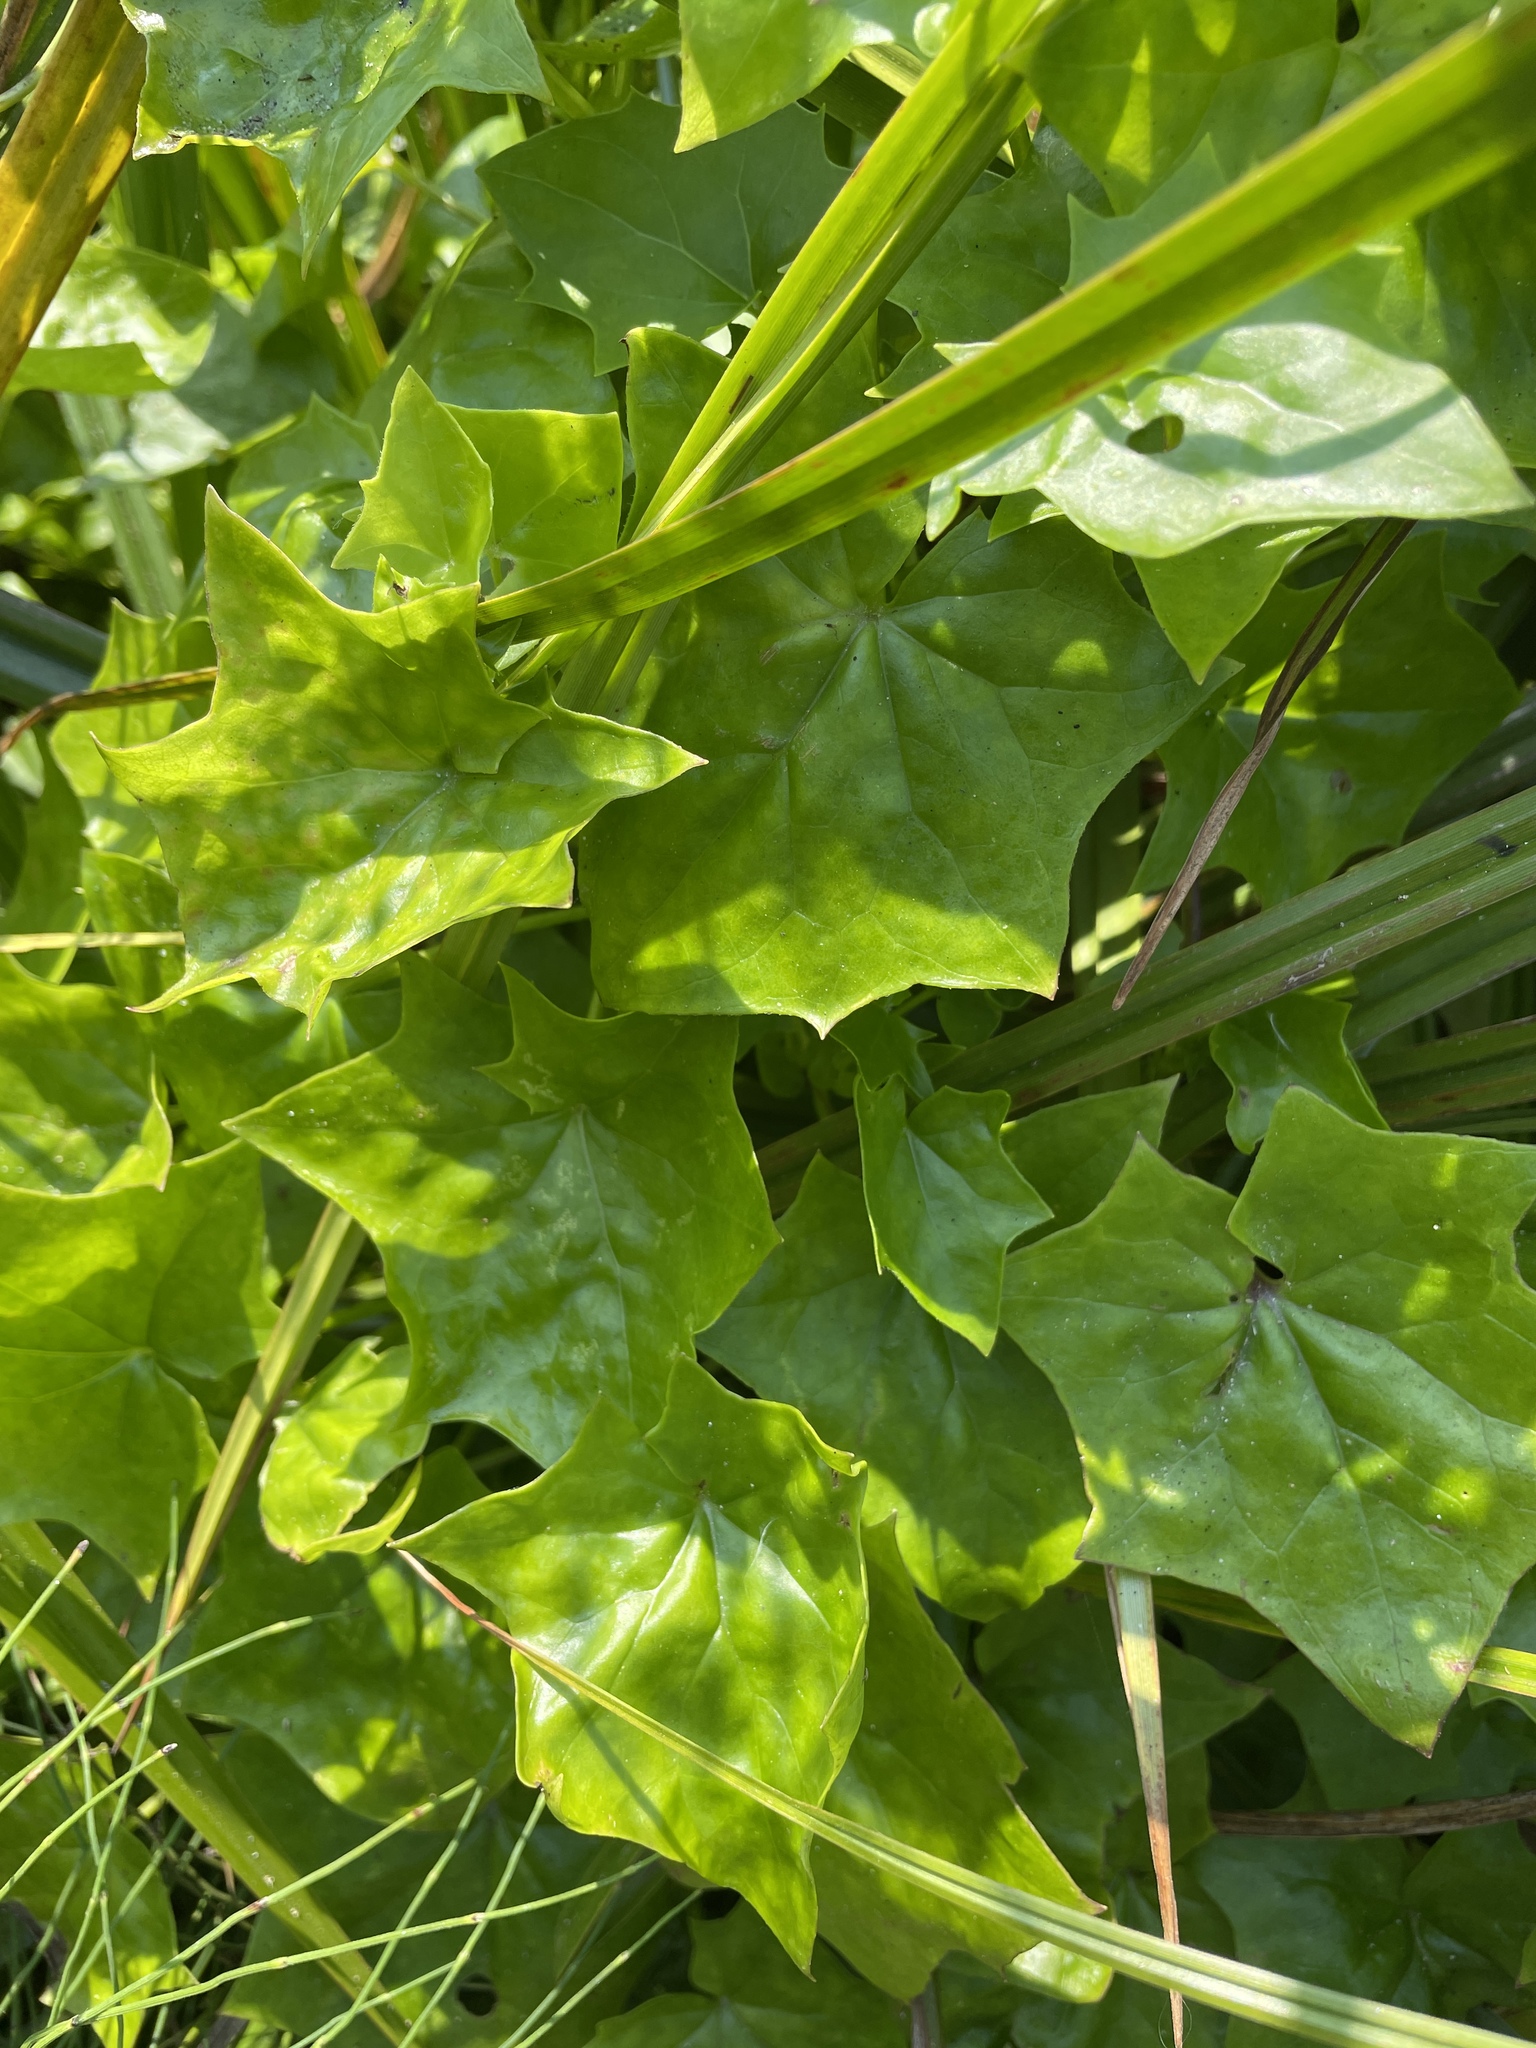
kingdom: Plantae
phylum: Tracheophyta
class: Magnoliopsida
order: Asterales
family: Asteraceae
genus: Delairea
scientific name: Delairea odorata
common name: Cape-ivy
